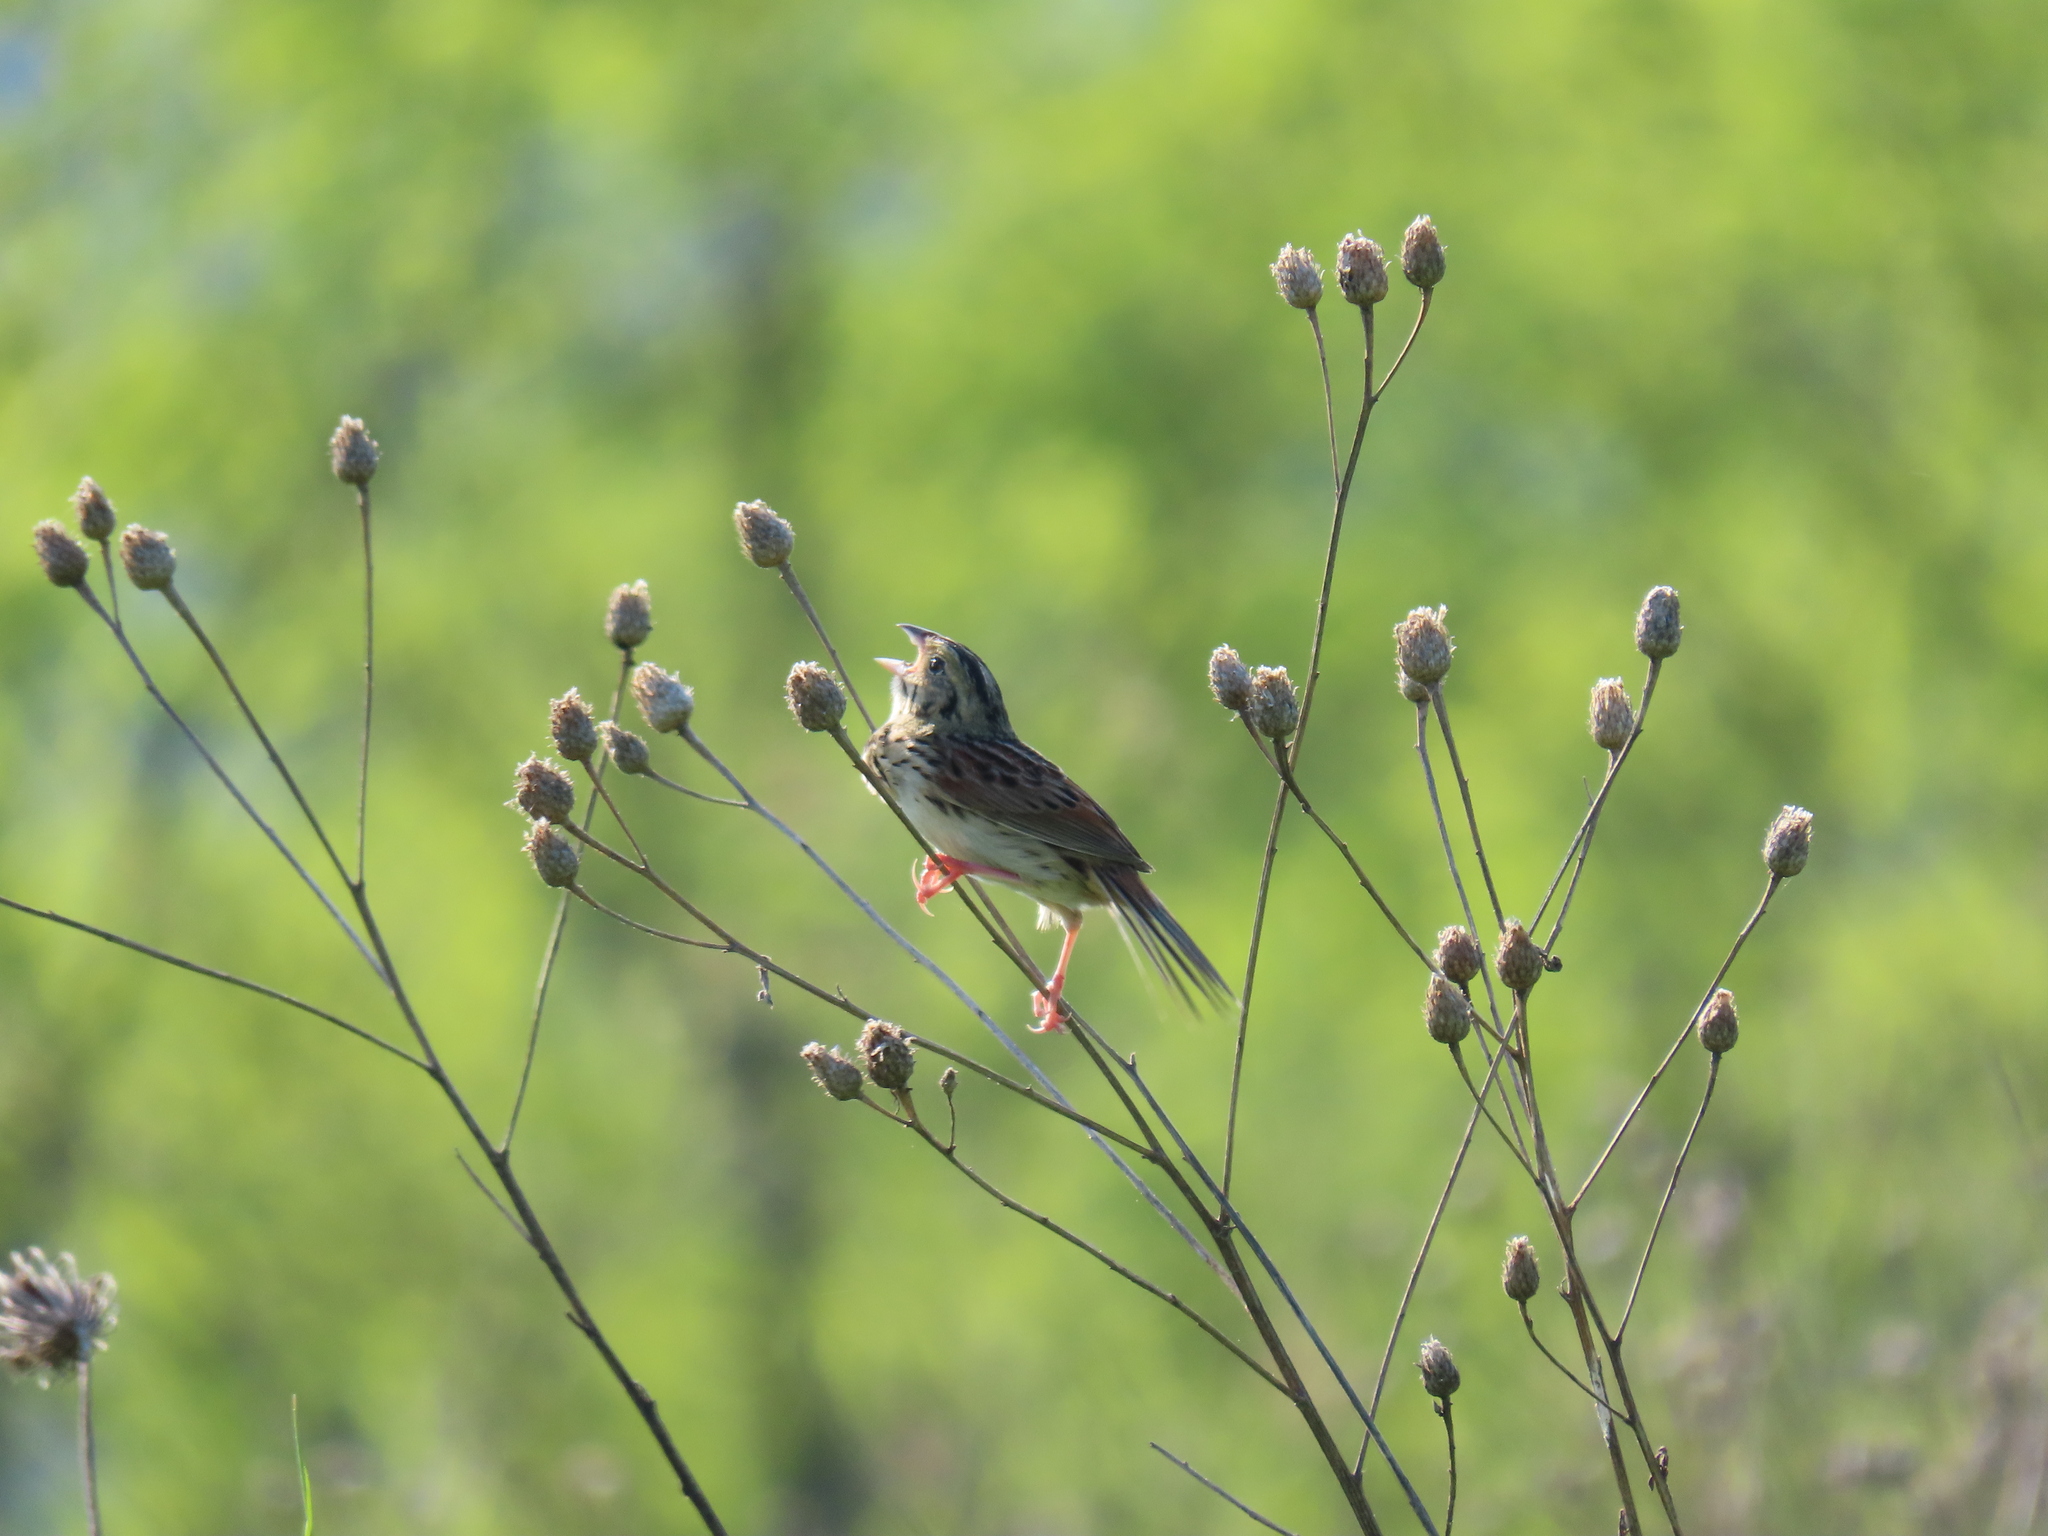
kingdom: Animalia
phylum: Chordata
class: Aves
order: Passeriformes
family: Passerellidae
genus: Centronyx
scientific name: Centronyx henslowii
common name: Henslow's sparrow
